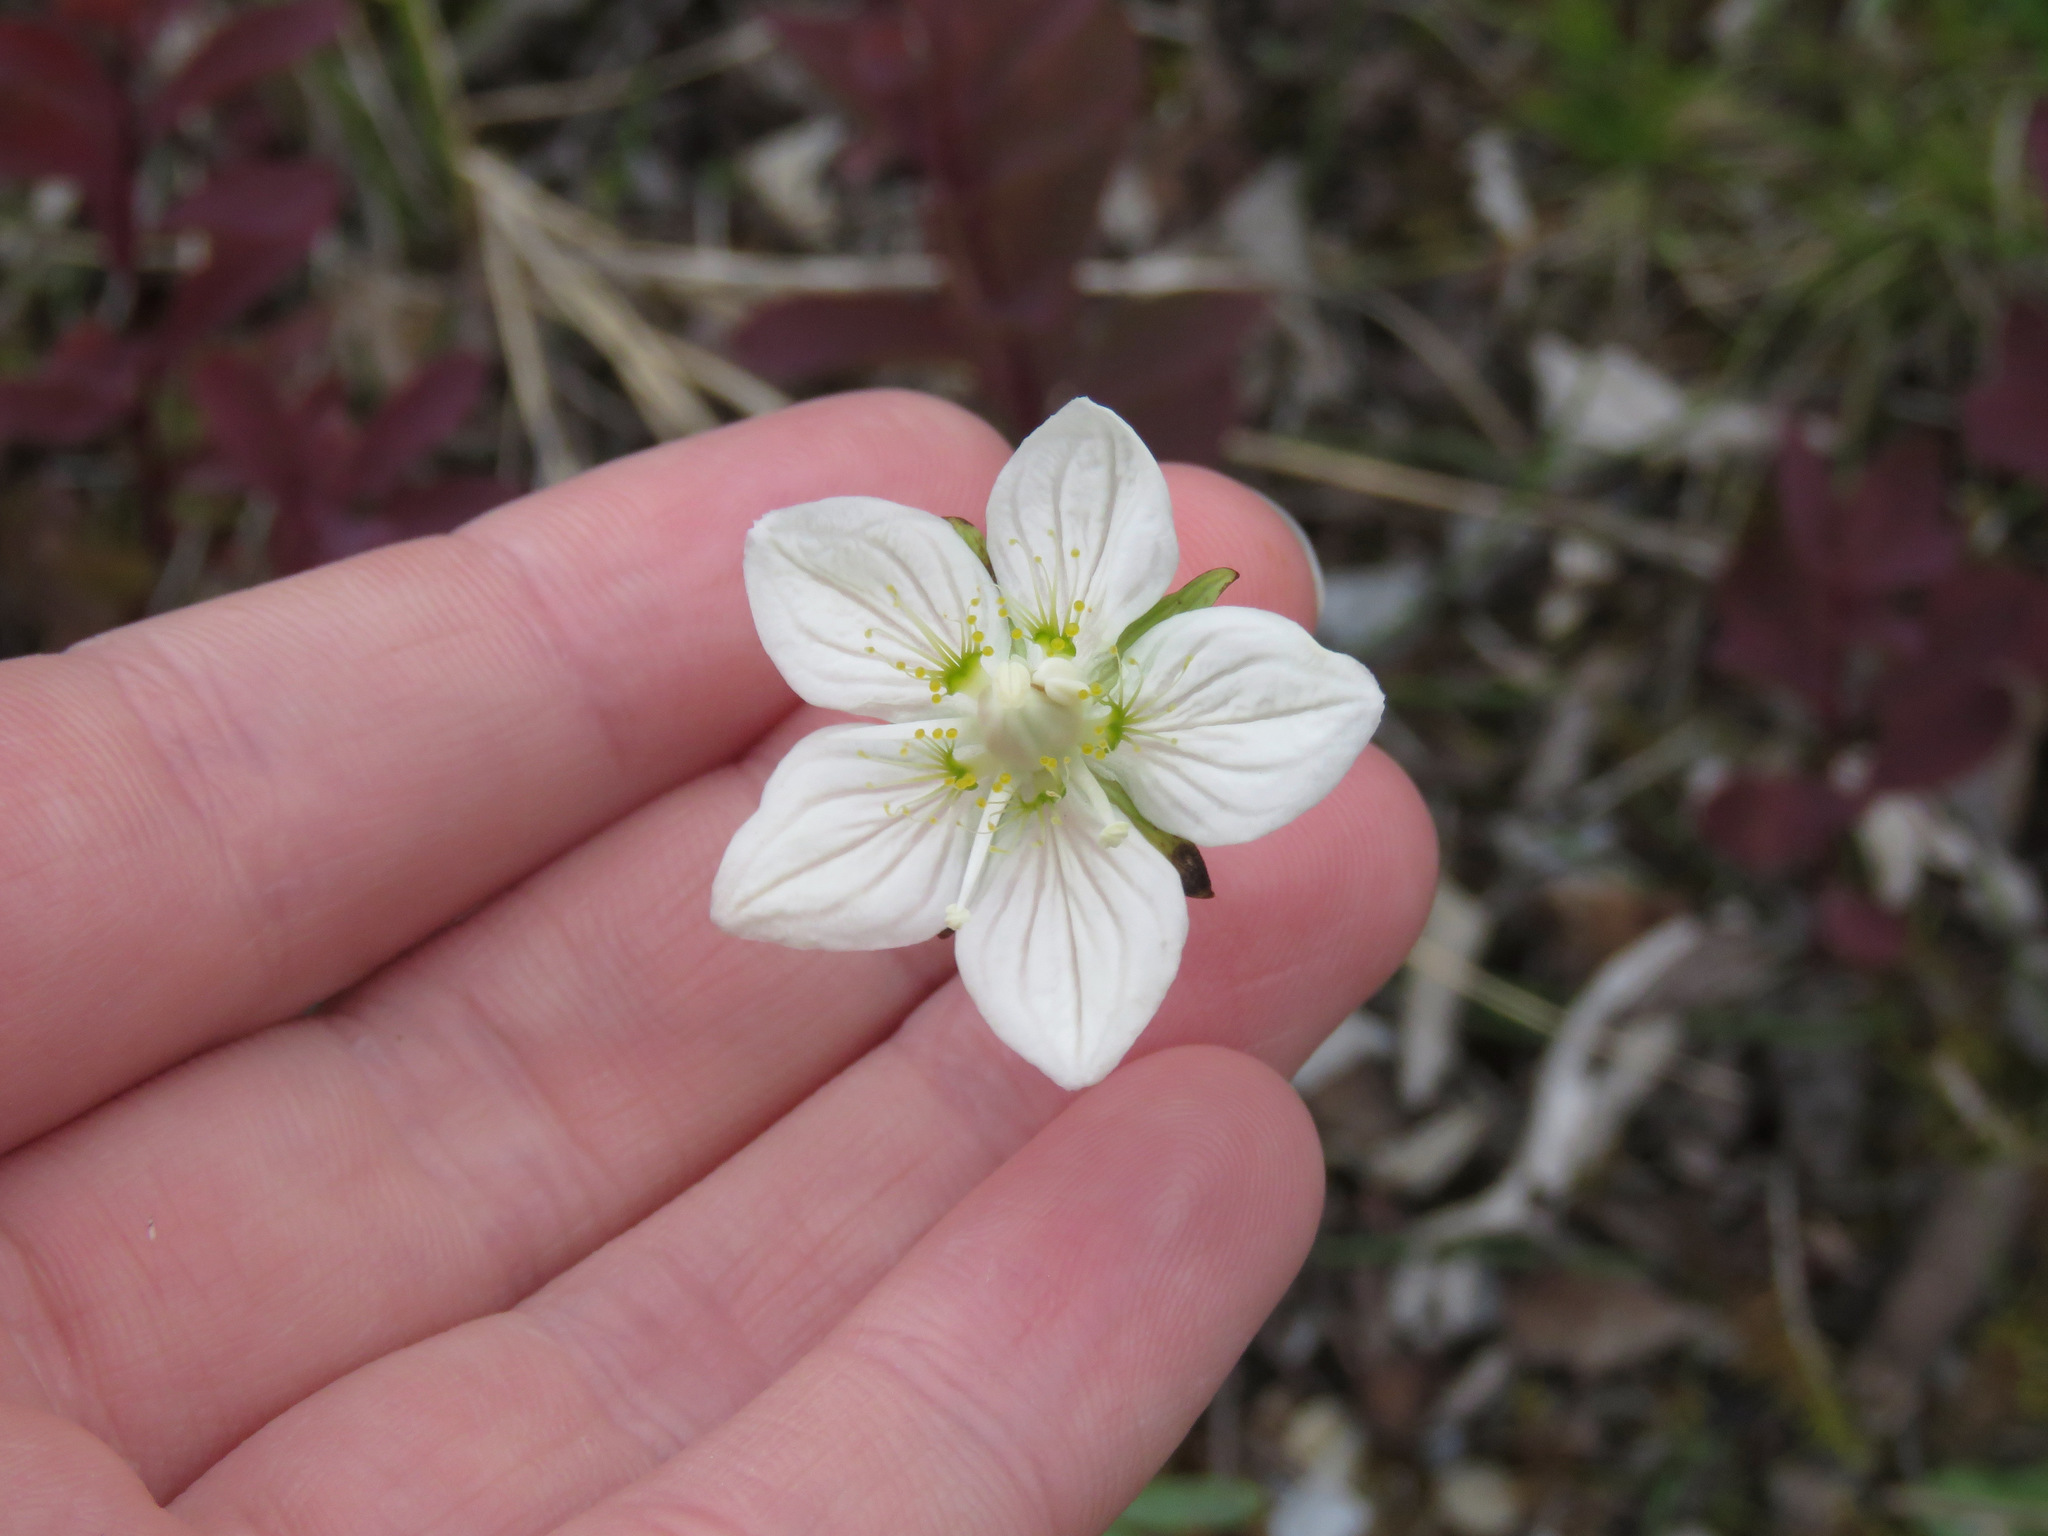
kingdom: Plantae
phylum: Tracheophyta
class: Magnoliopsida
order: Celastrales
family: Parnassiaceae
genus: Parnassia
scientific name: Parnassia palustris
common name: Grass-of-parnassus
